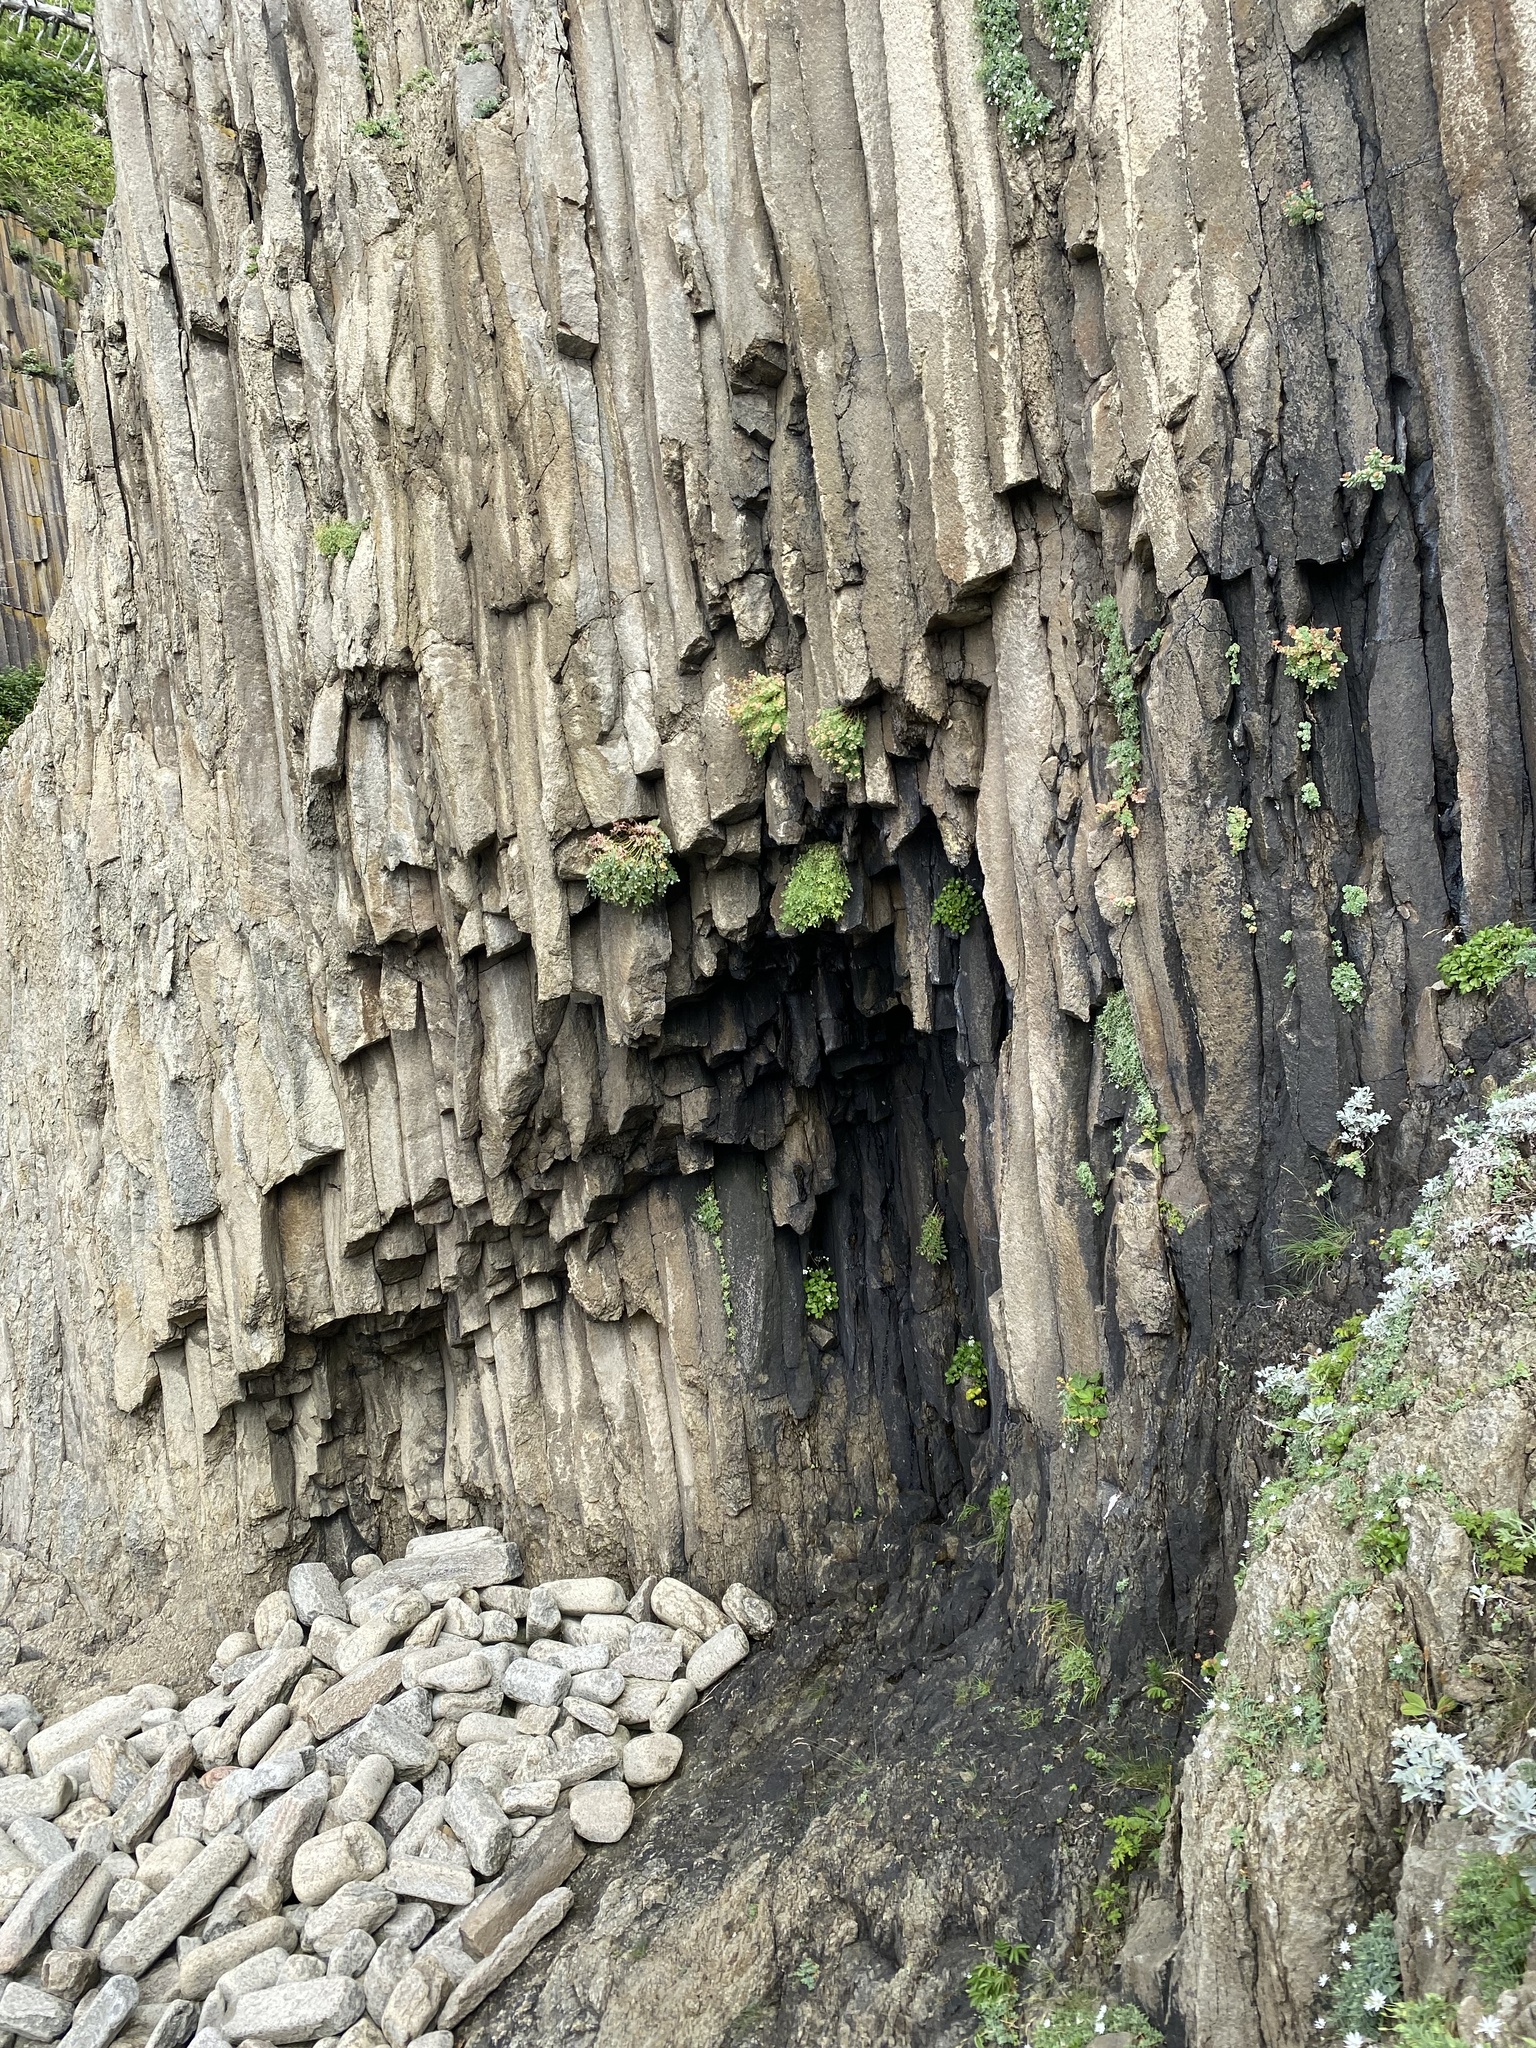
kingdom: Plantae
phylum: Tracheophyta
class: Magnoliopsida
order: Saxifragales
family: Crassulaceae
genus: Rhodiola
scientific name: Rhodiola rosea
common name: Roseroot
